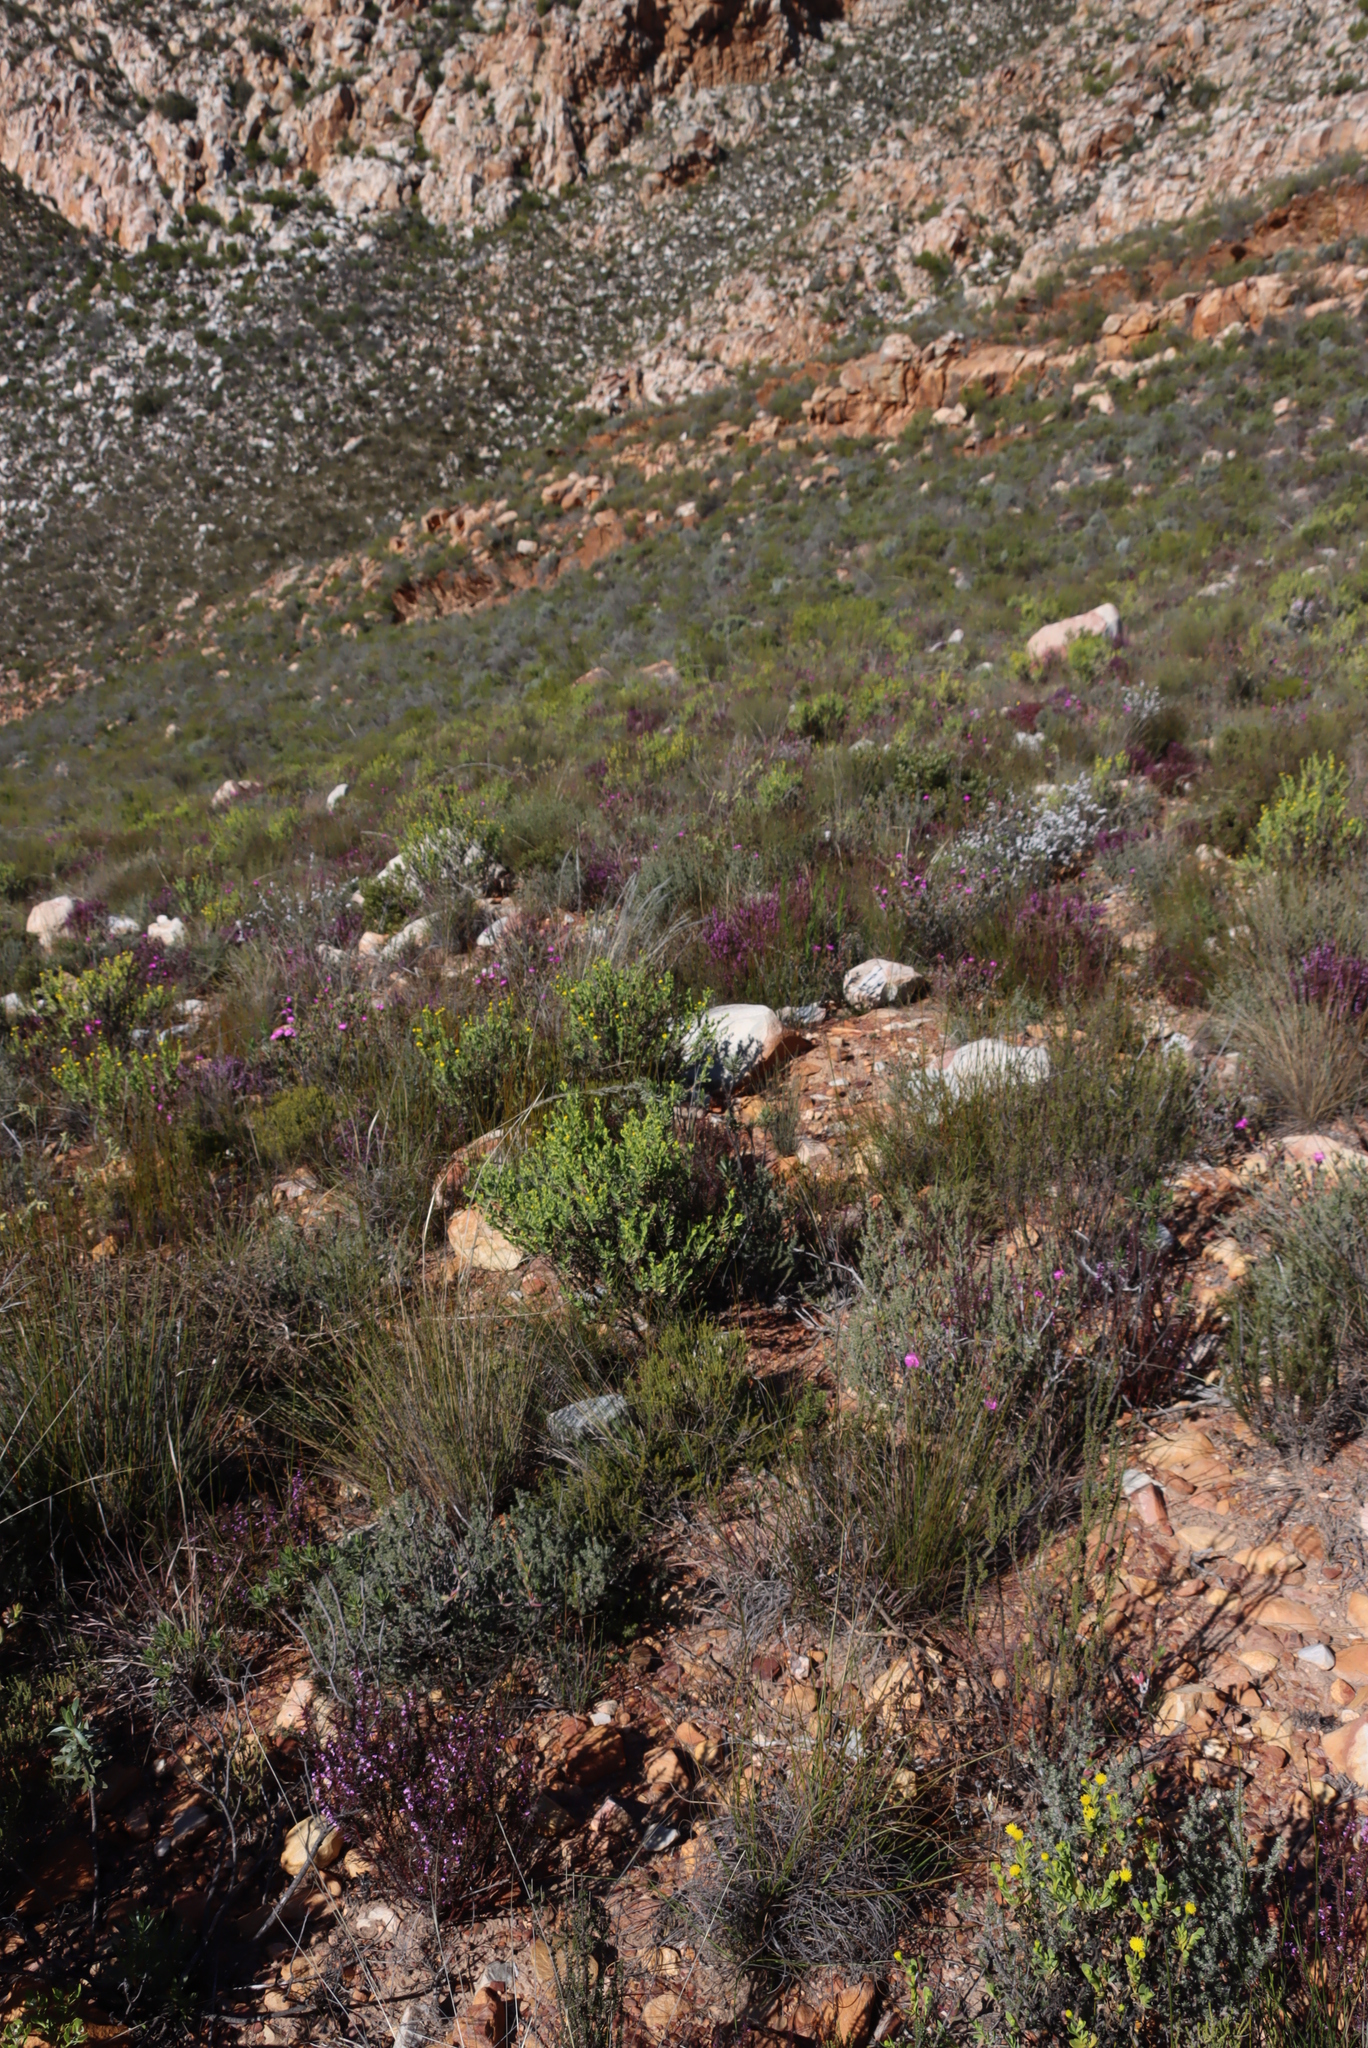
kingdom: Plantae
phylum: Tracheophyta
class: Magnoliopsida
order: Fabales
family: Polygalaceae
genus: Muraltia
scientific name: Muraltia juniperifolia
